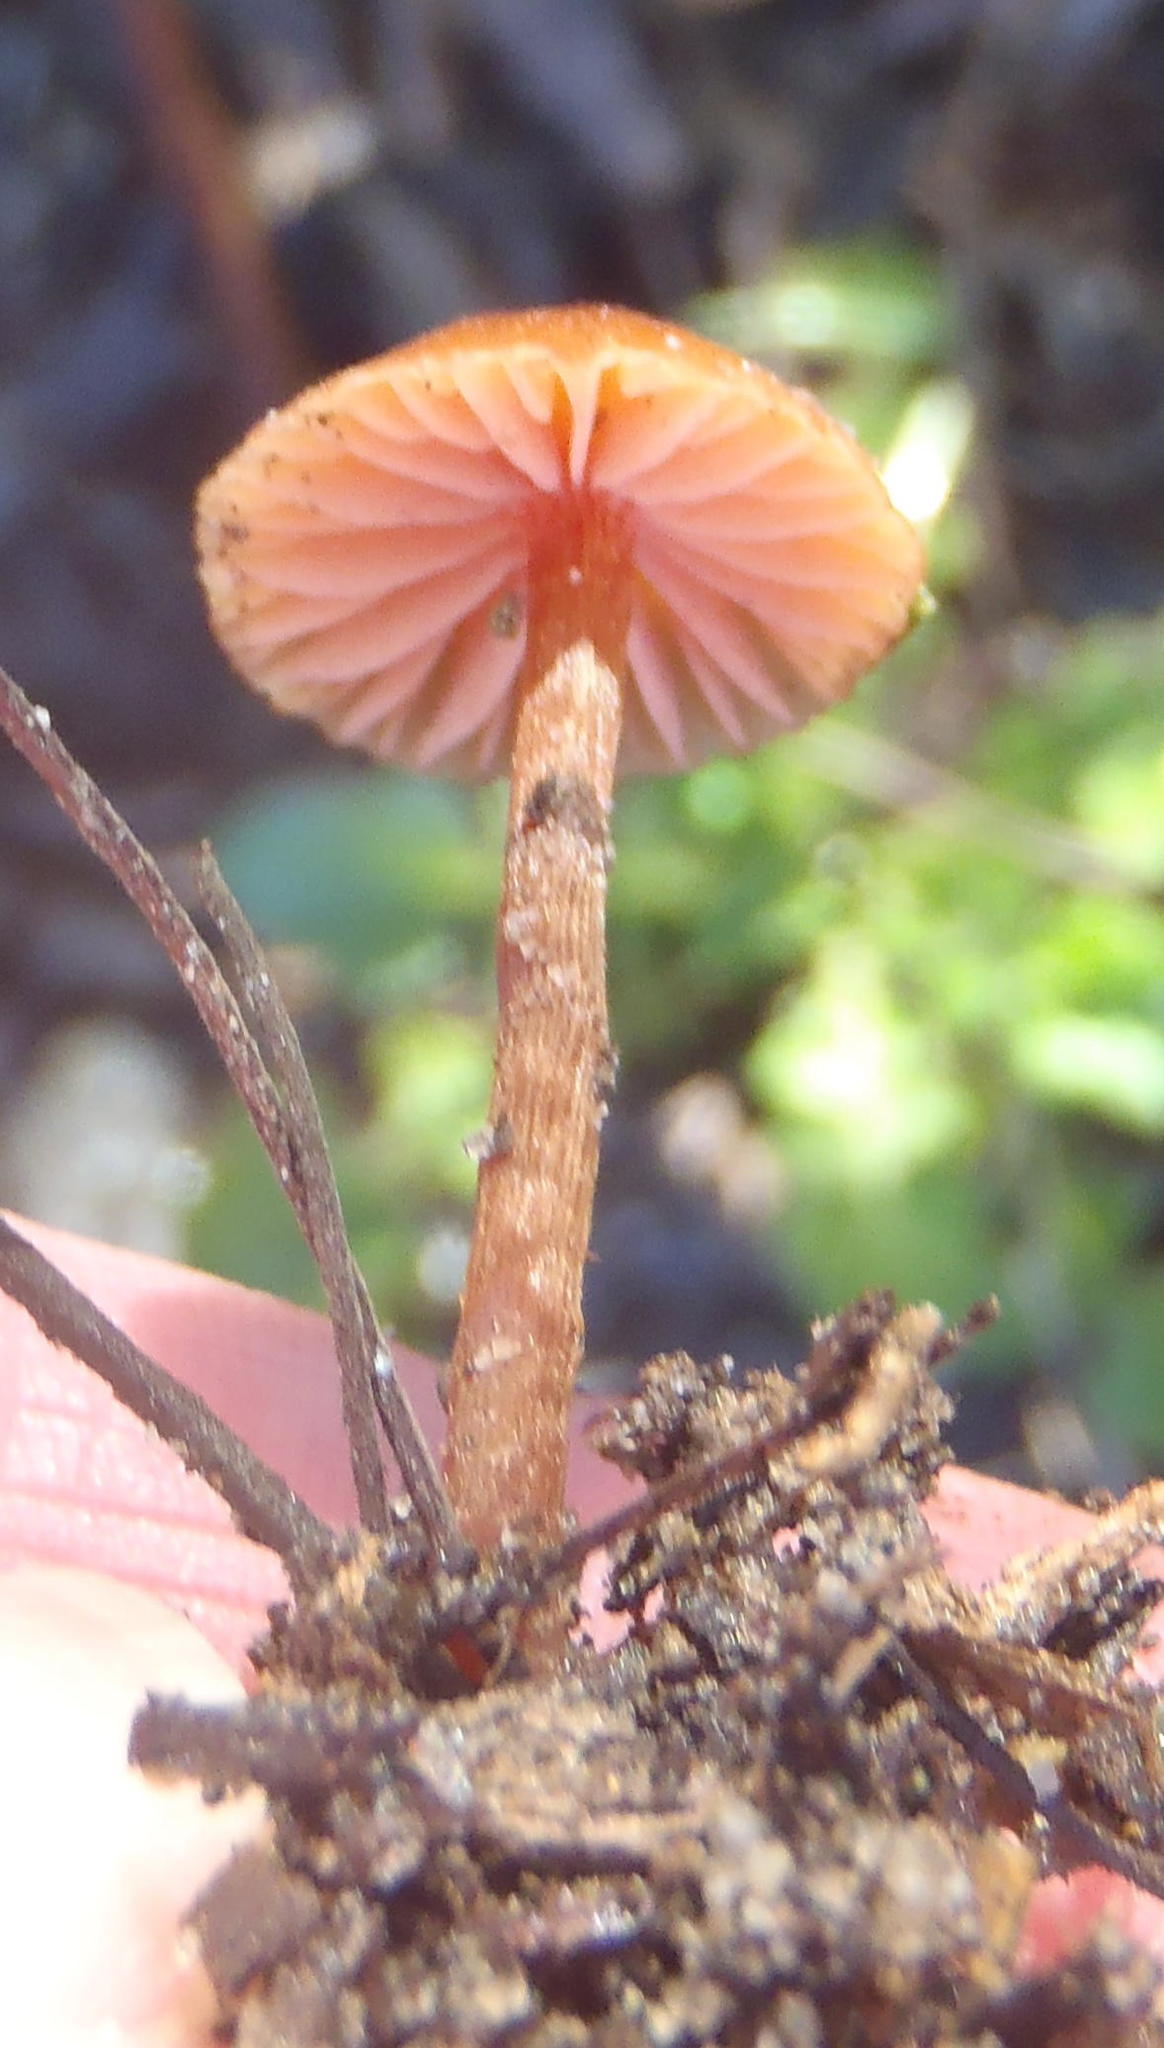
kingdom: Fungi
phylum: Basidiomycota
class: Agaricomycetes
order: Agaricales
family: Hydnangiaceae
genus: Laccaria
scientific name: Laccaria laccata
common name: Deceiver
